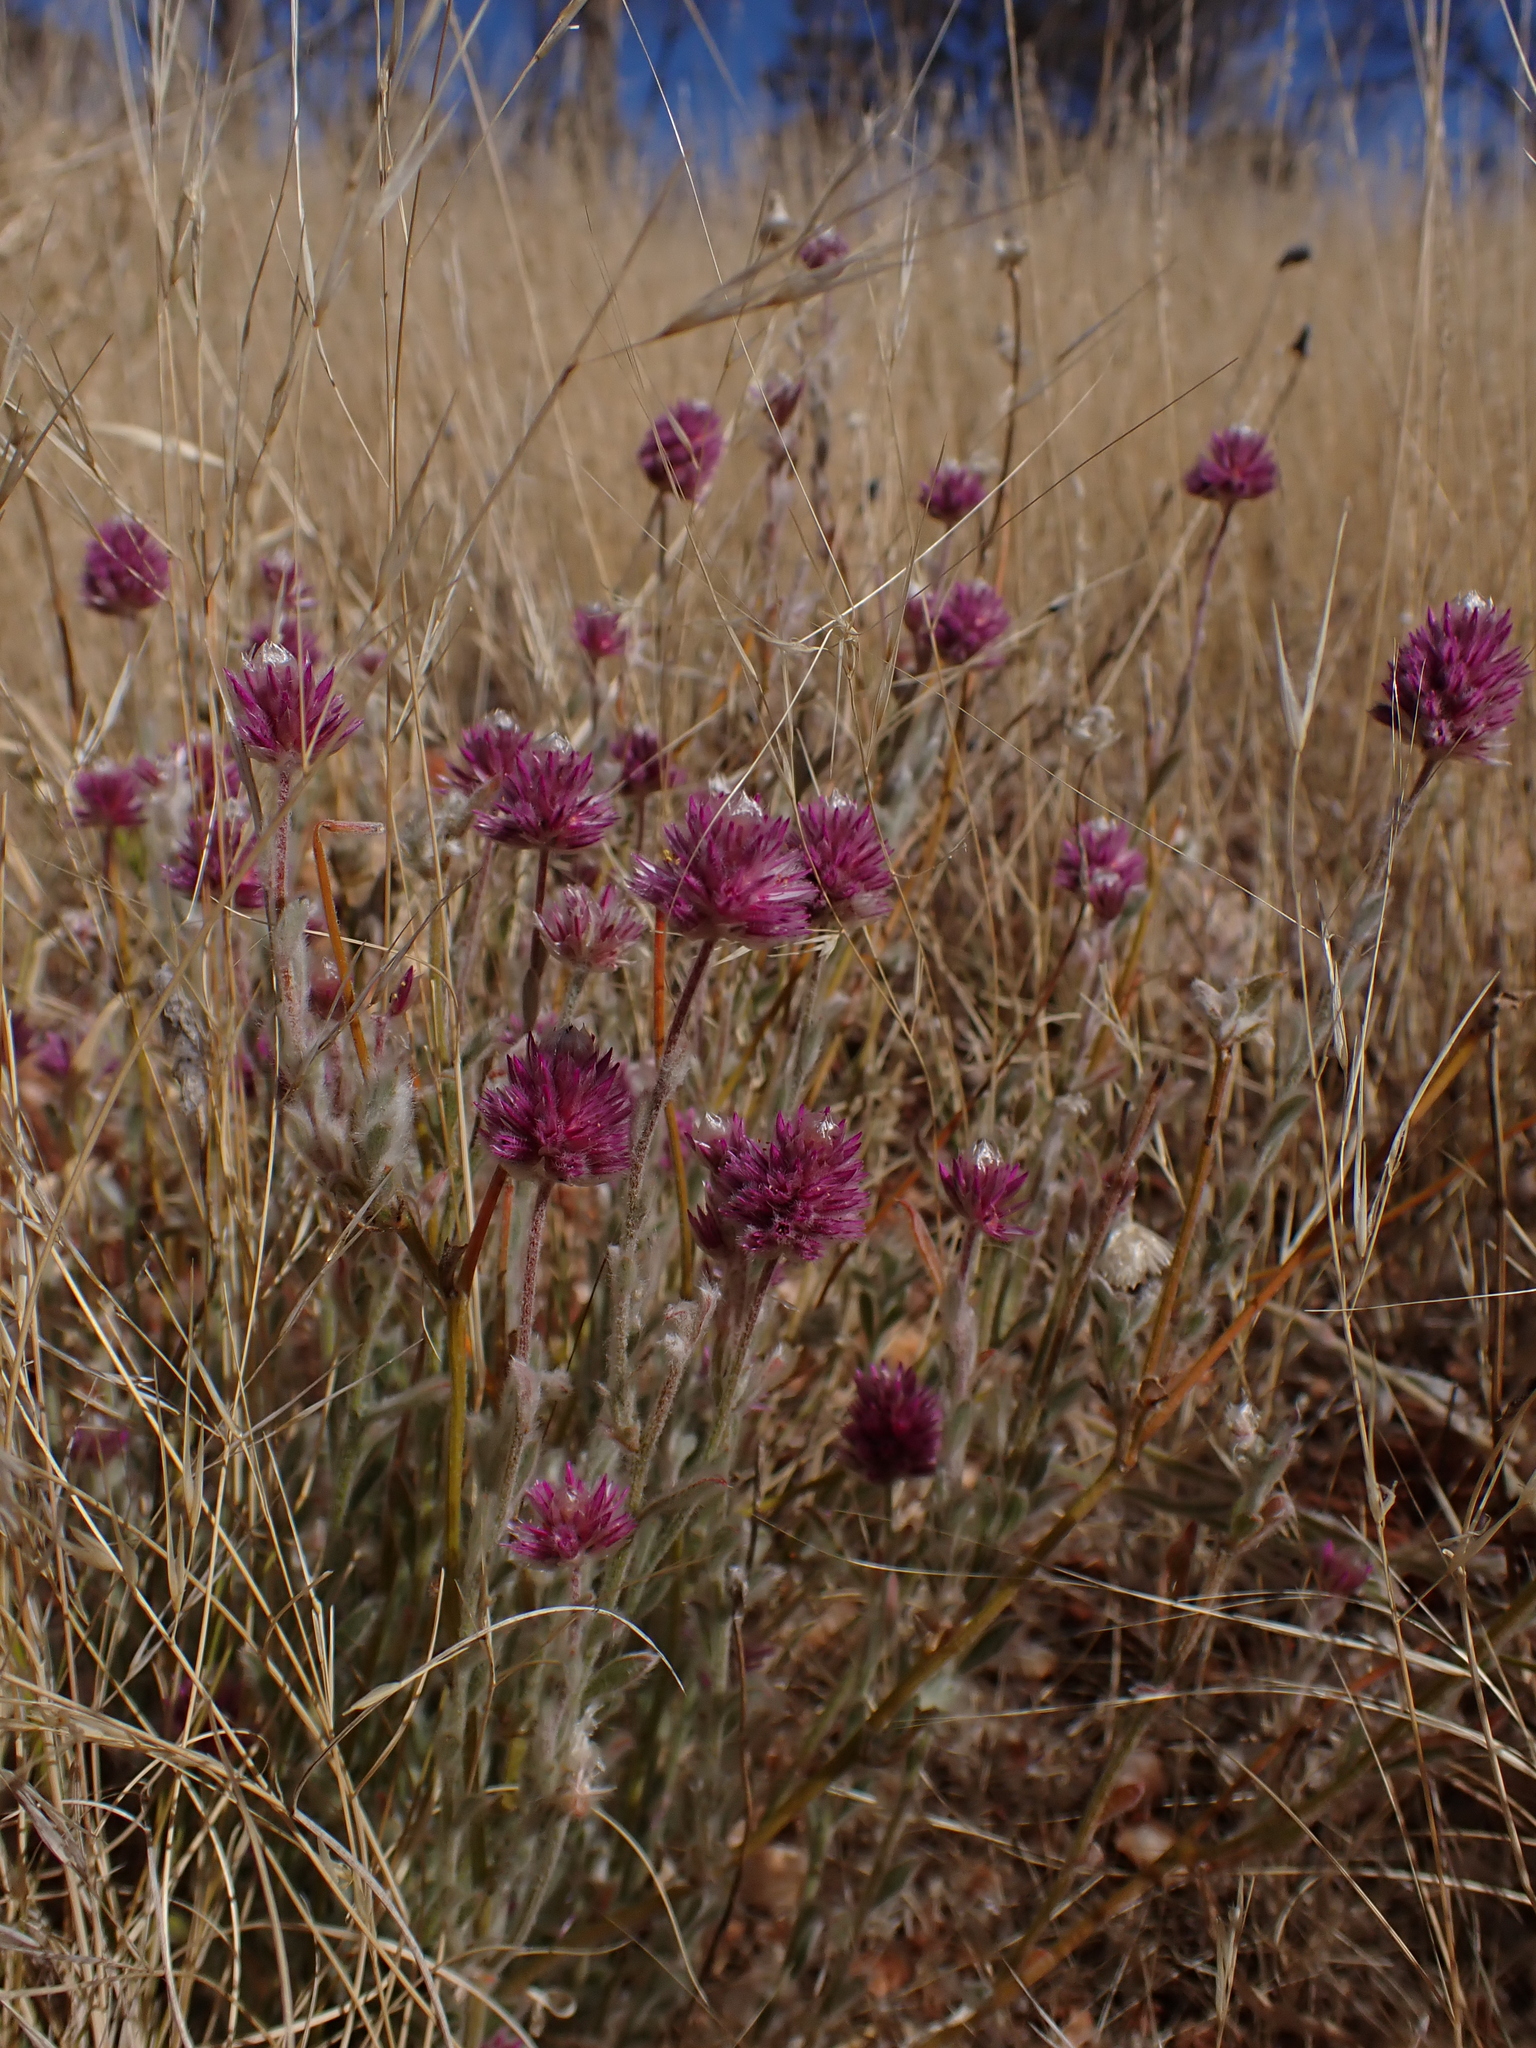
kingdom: Plantae
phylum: Tracheophyta
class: Magnoliopsida
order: Caryophyllales
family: Amaranthaceae
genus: Ptilotus
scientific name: Ptilotus helipteroides
